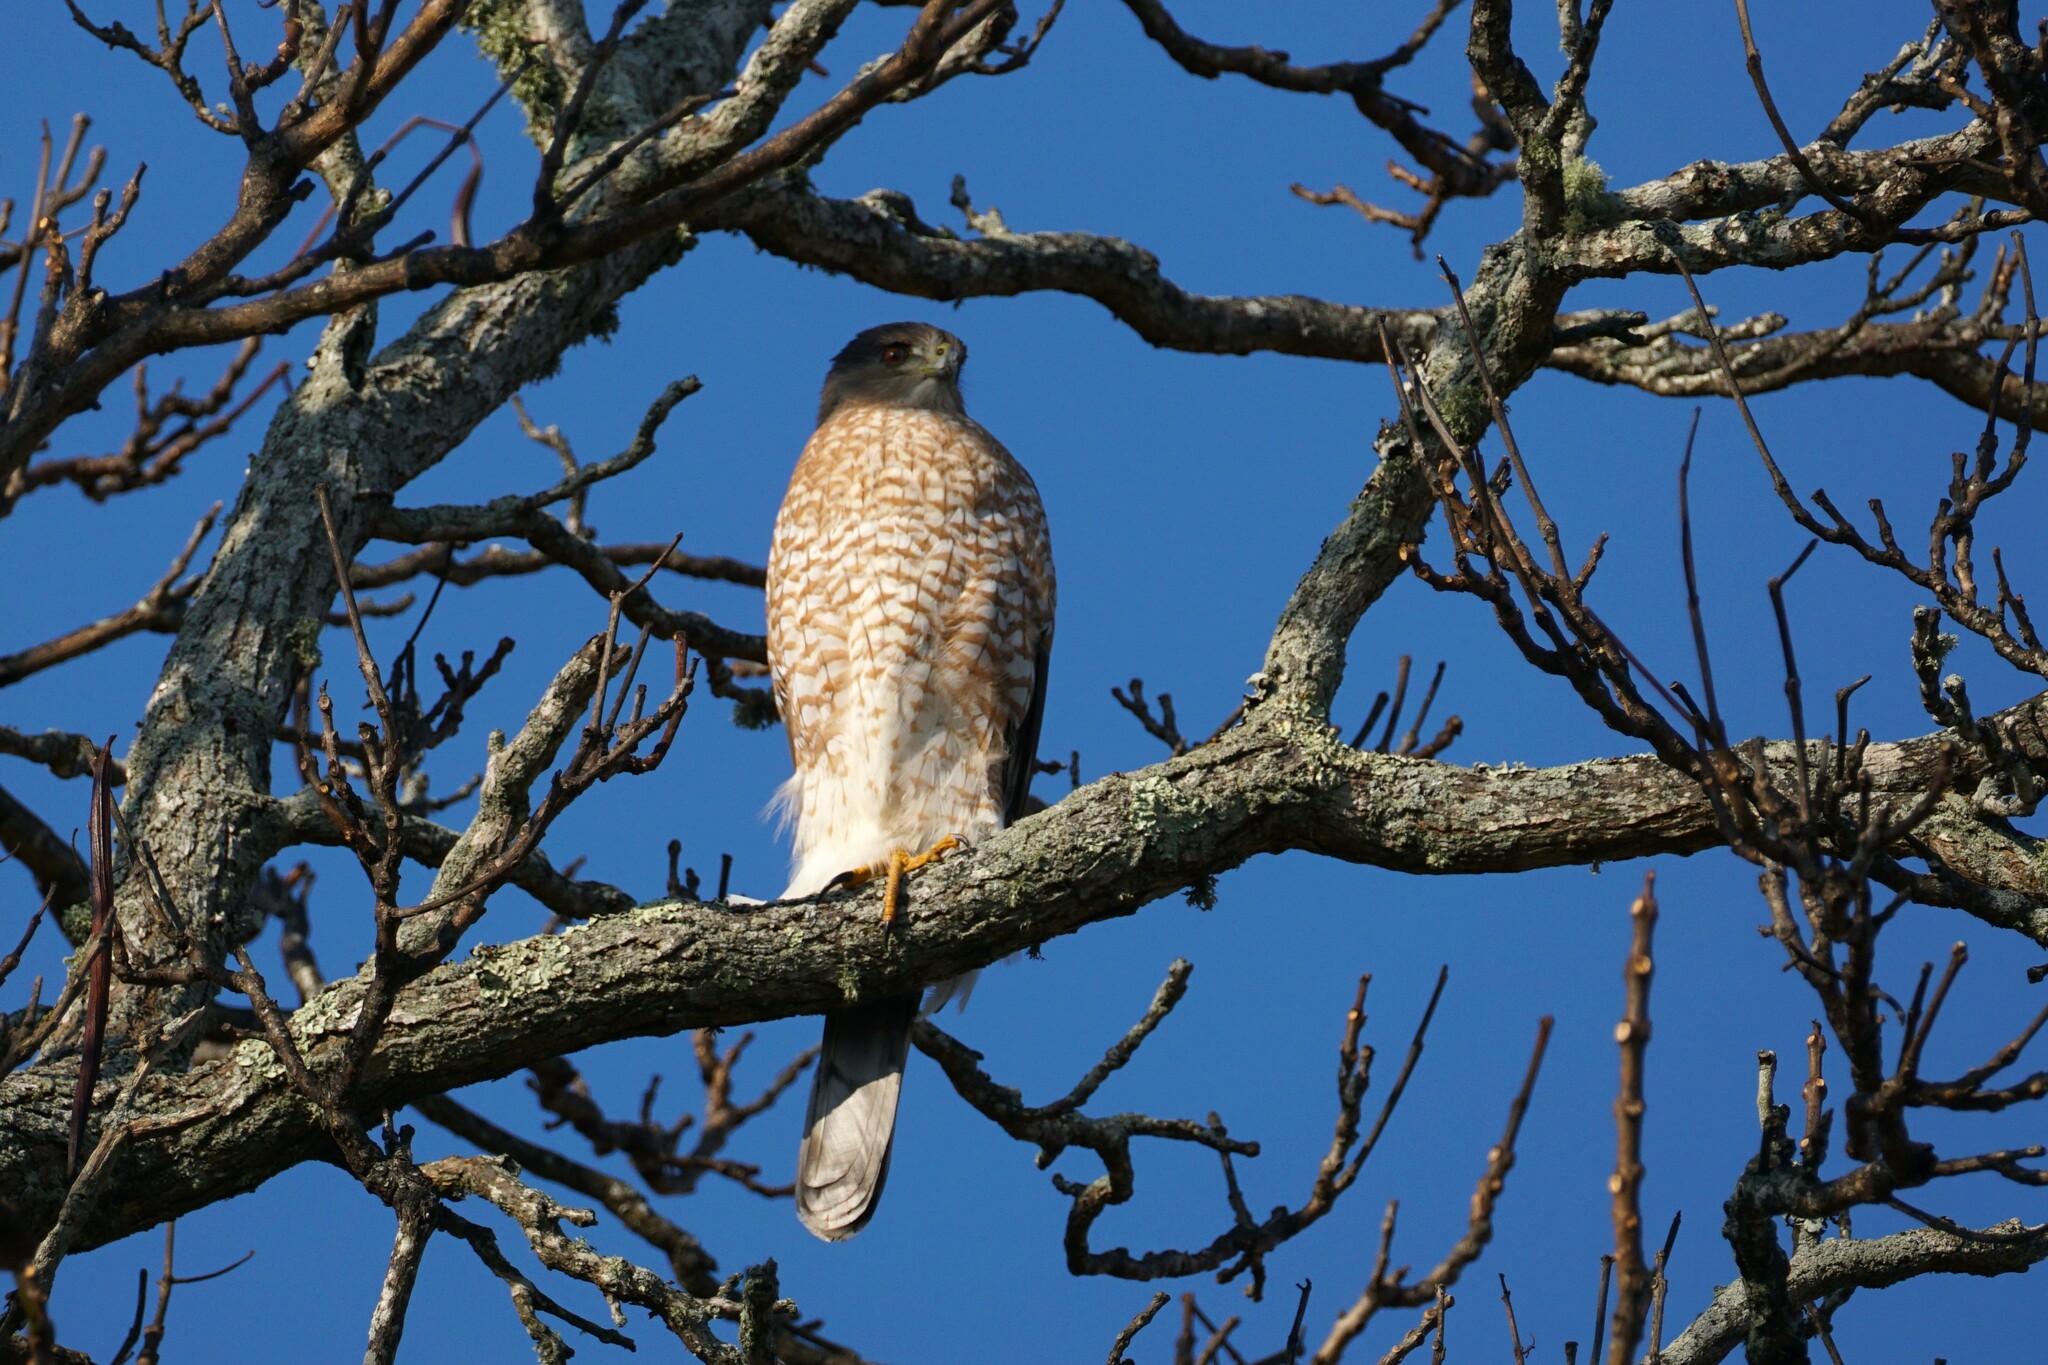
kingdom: Animalia
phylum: Chordata
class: Aves
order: Accipitriformes
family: Accipitridae
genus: Accipiter
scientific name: Accipiter cooperii
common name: Cooper's hawk
